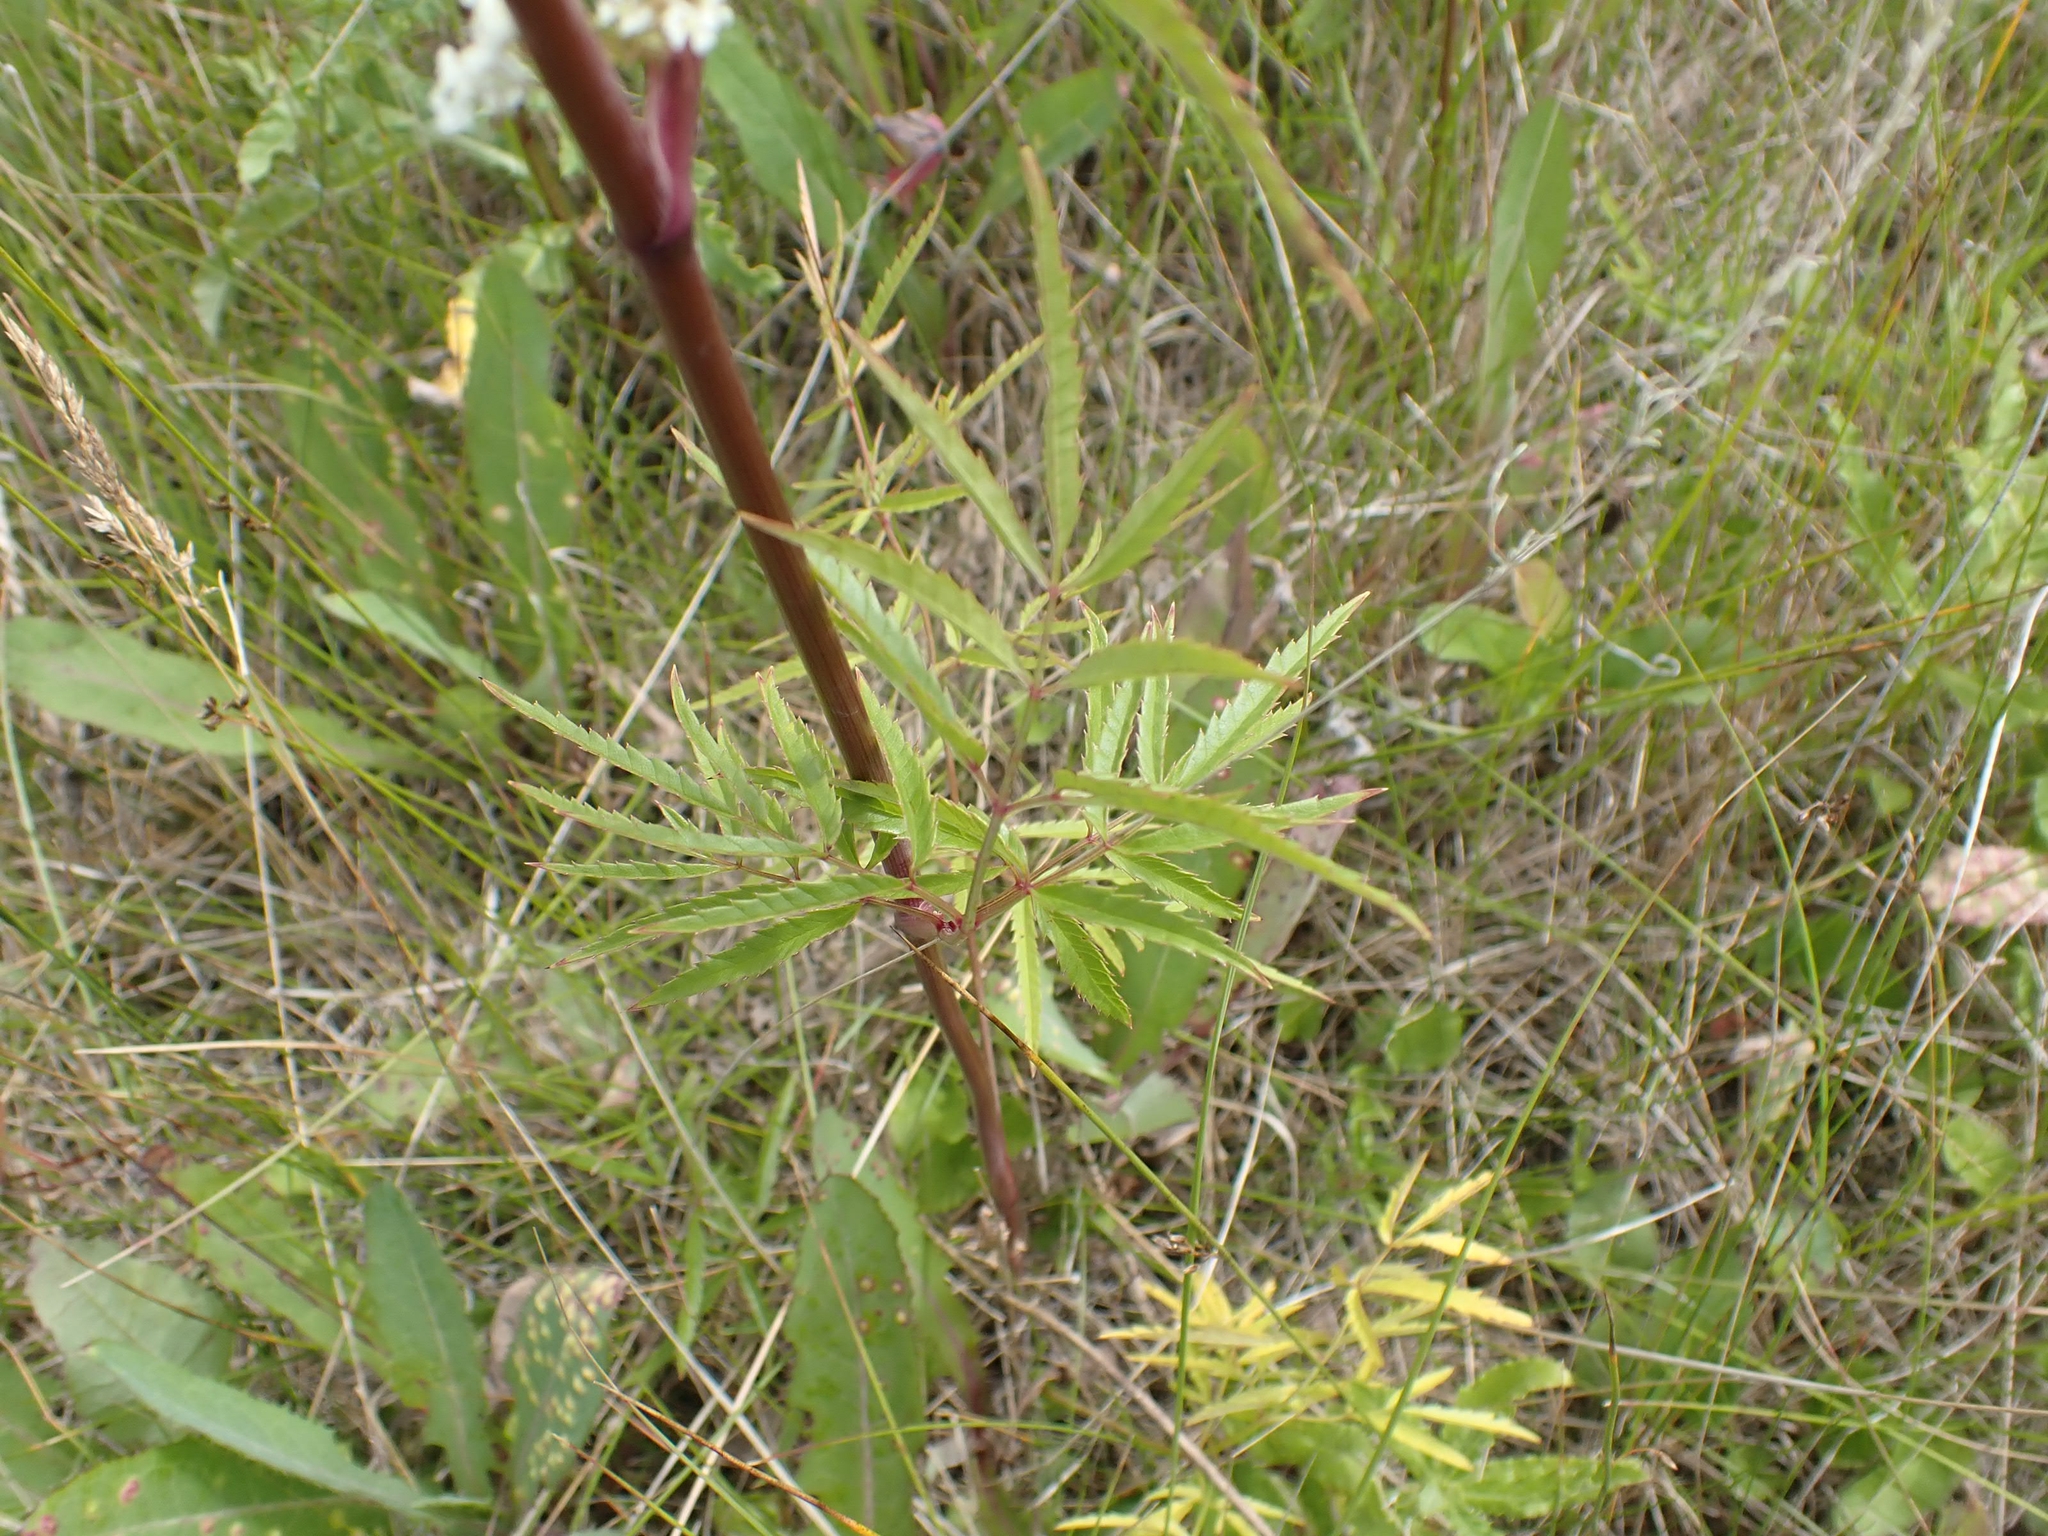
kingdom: Plantae
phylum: Tracheophyta
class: Magnoliopsida
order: Apiales
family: Apiaceae
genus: Cicuta
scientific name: Cicuta maculata
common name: Spotted cowbane
